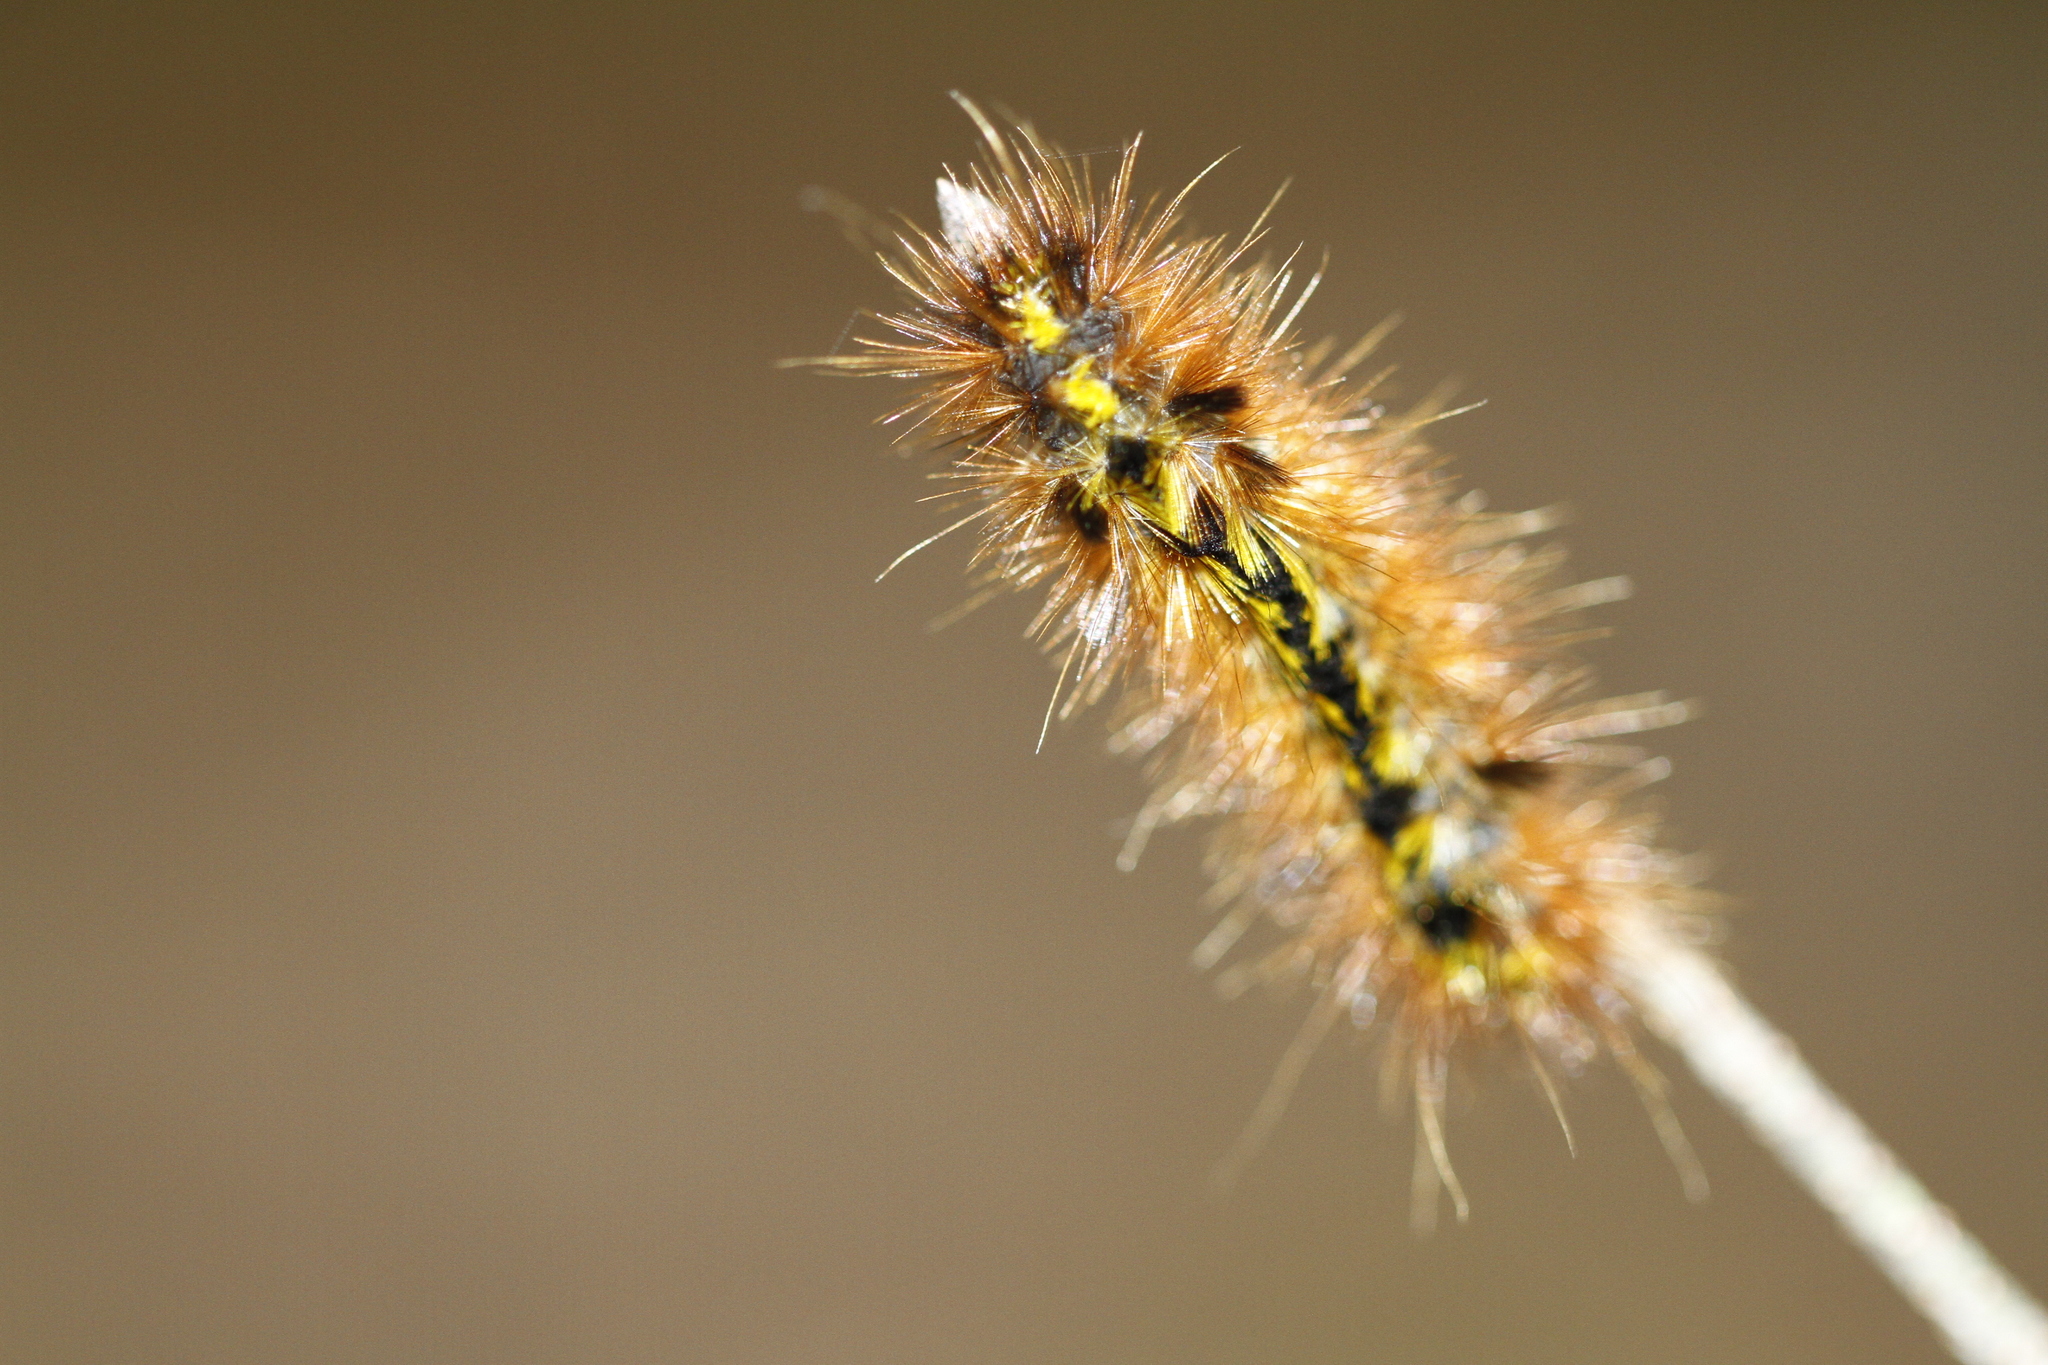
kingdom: Animalia
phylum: Arthropoda
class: Insecta
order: Lepidoptera
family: Erebidae
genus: Lophocampa
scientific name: Lophocampa argentata
